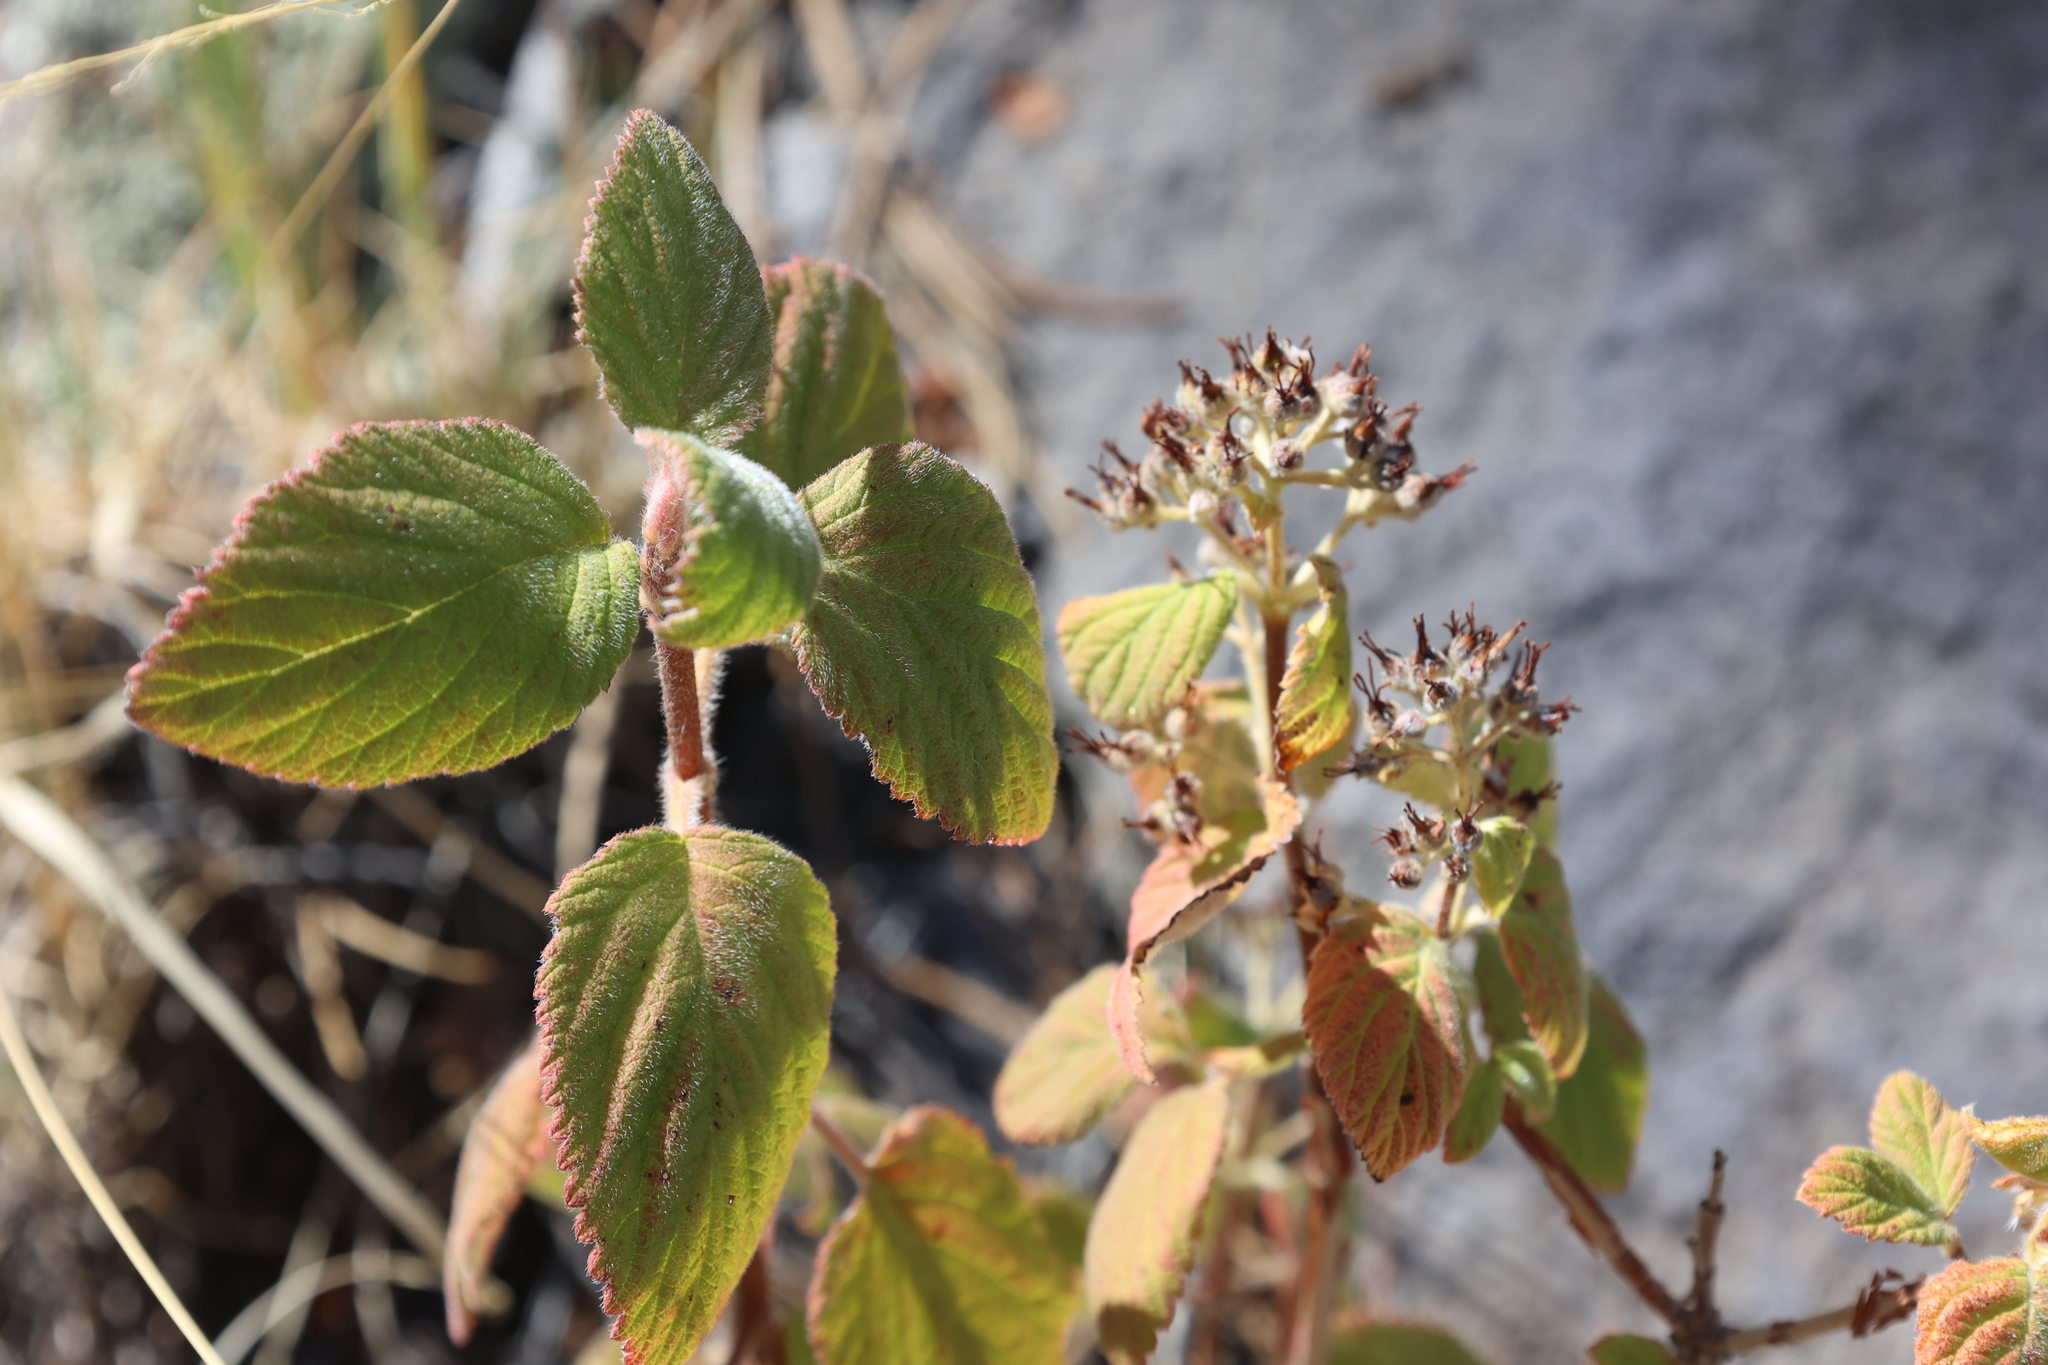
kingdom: Plantae
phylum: Tracheophyta
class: Magnoliopsida
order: Cornales
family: Hydrangeaceae
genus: Jamesia
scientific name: Jamesia americana
